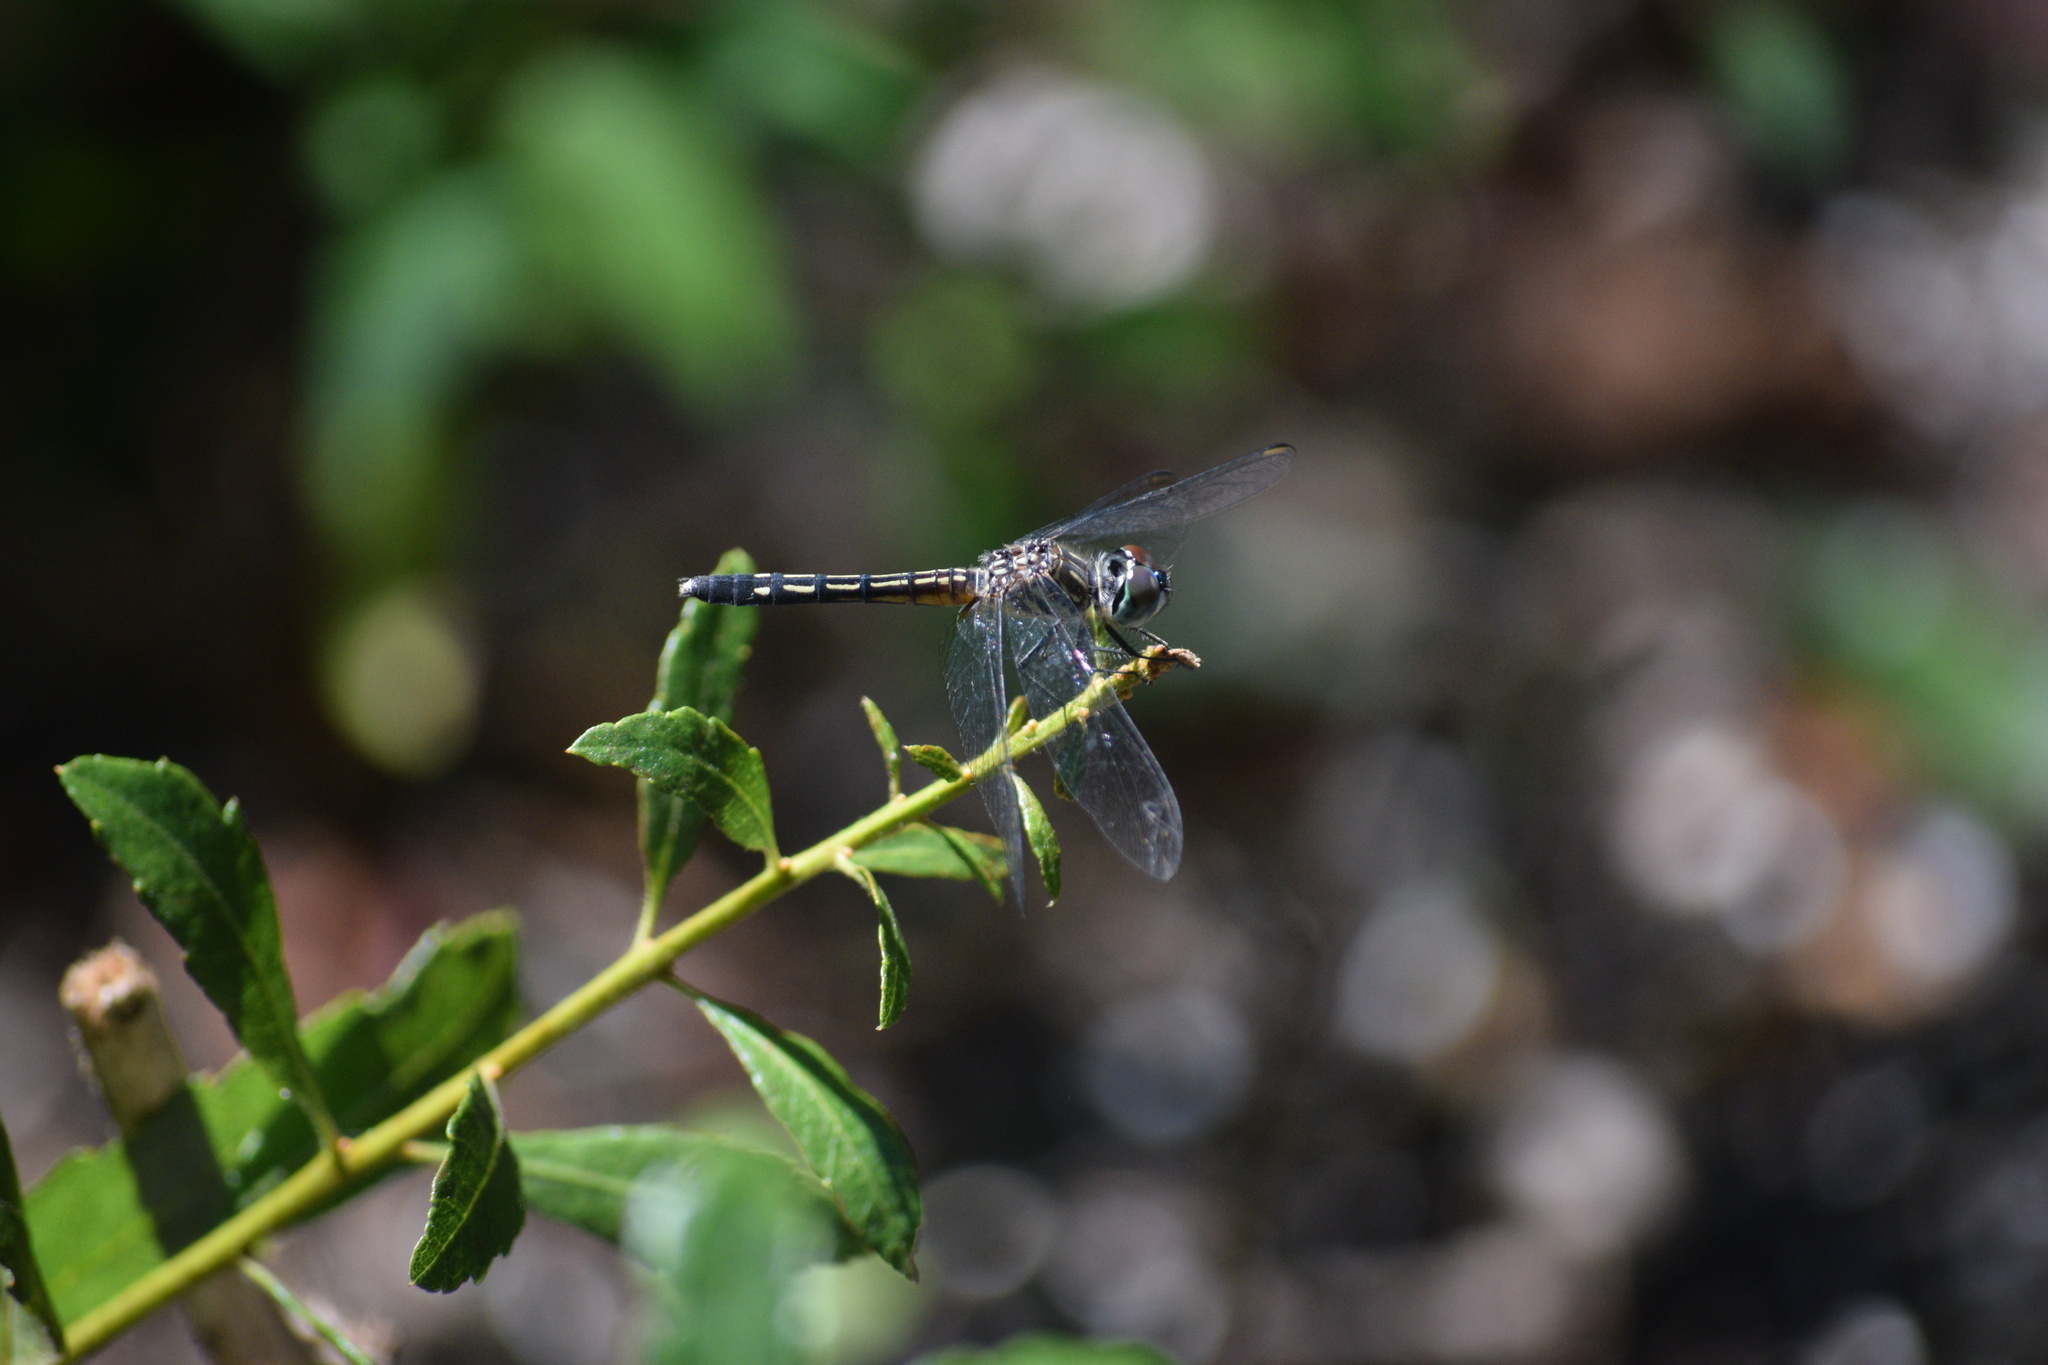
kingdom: Animalia
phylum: Arthropoda
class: Insecta
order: Odonata
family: Libellulidae
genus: Pachydiplax
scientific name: Pachydiplax longipennis
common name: Blue dasher
